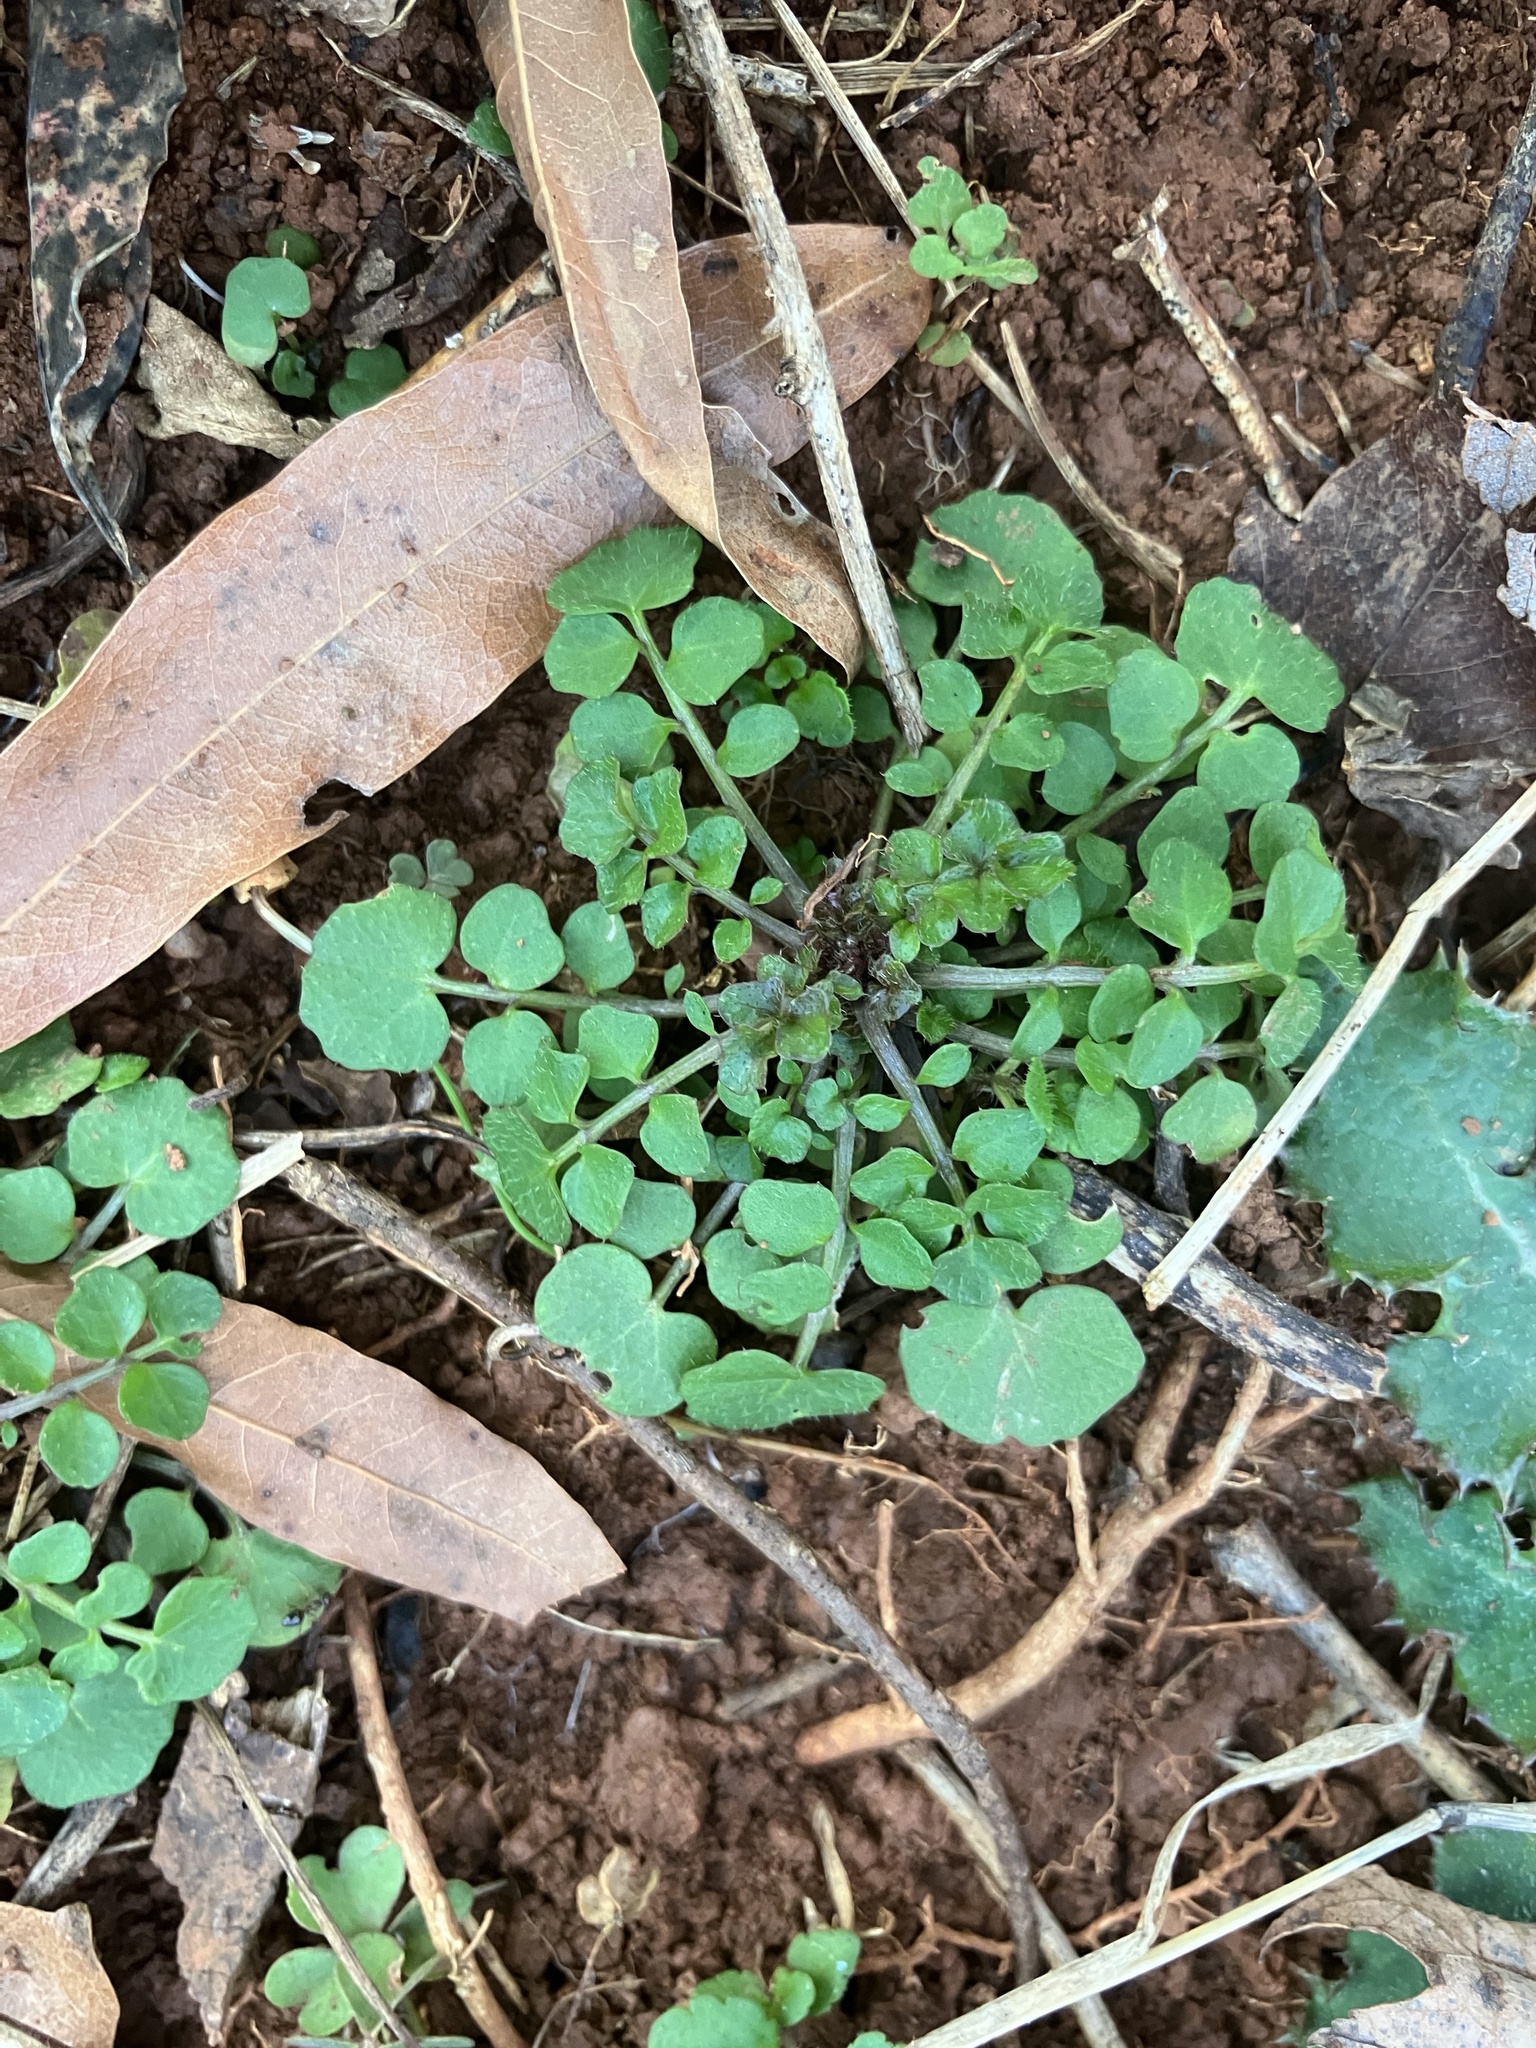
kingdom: Plantae
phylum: Tracheophyta
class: Magnoliopsida
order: Brassicales
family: Brassicaceae
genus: Cardamine
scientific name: Cardamine hirsuta
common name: Hairy bittercress
